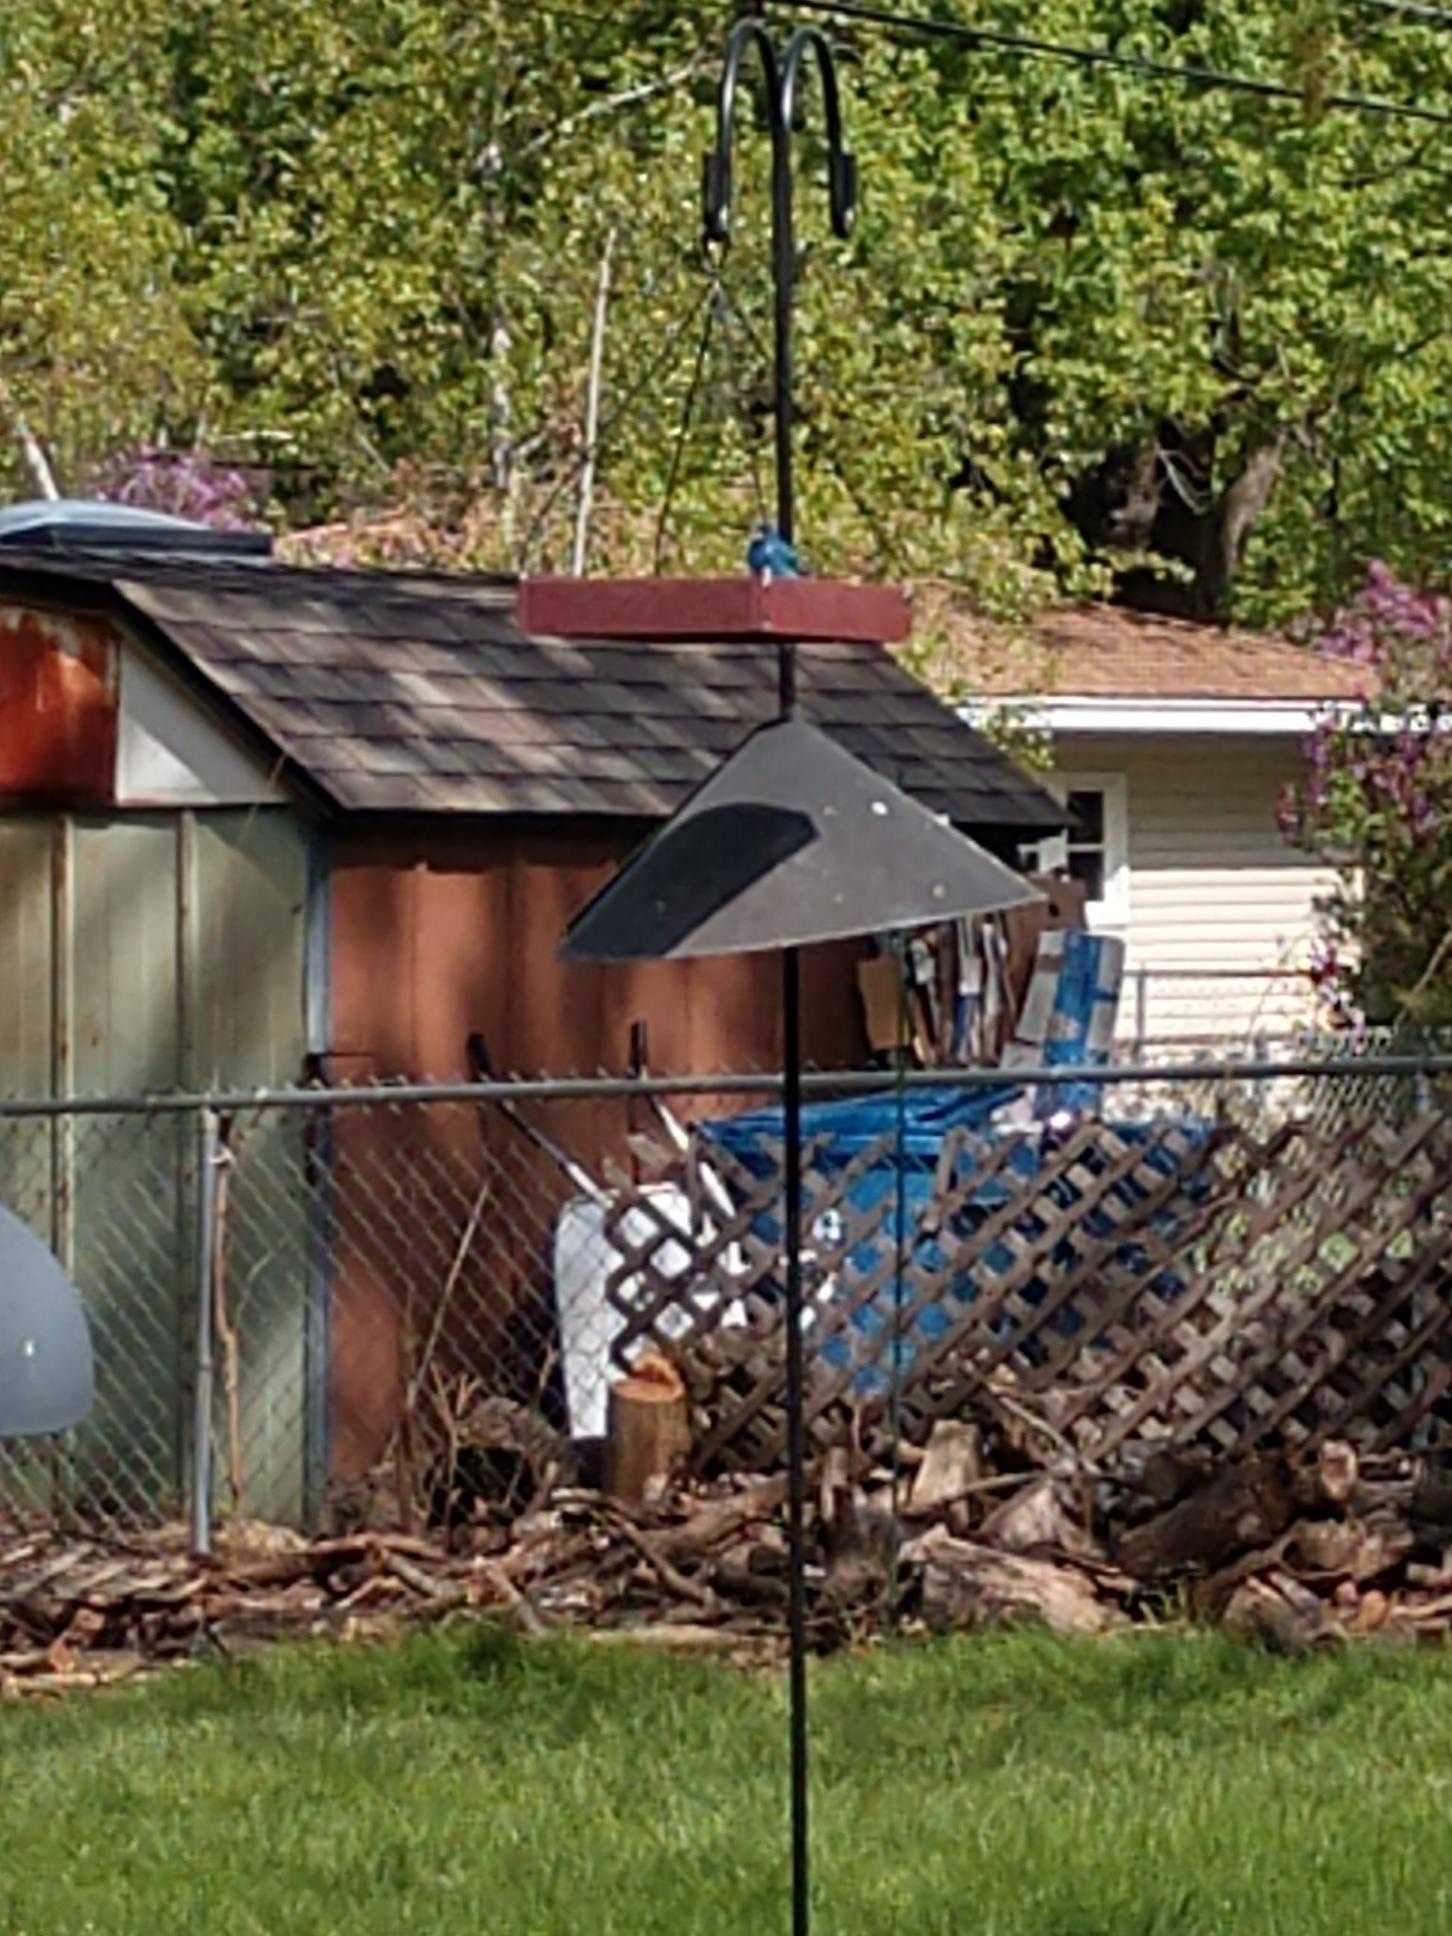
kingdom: Animalia
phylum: Chordata
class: Aves
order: Passeriformes
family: Cardinalidae
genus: Passerina
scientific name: Passerina cyanea
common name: Indigo bunting
